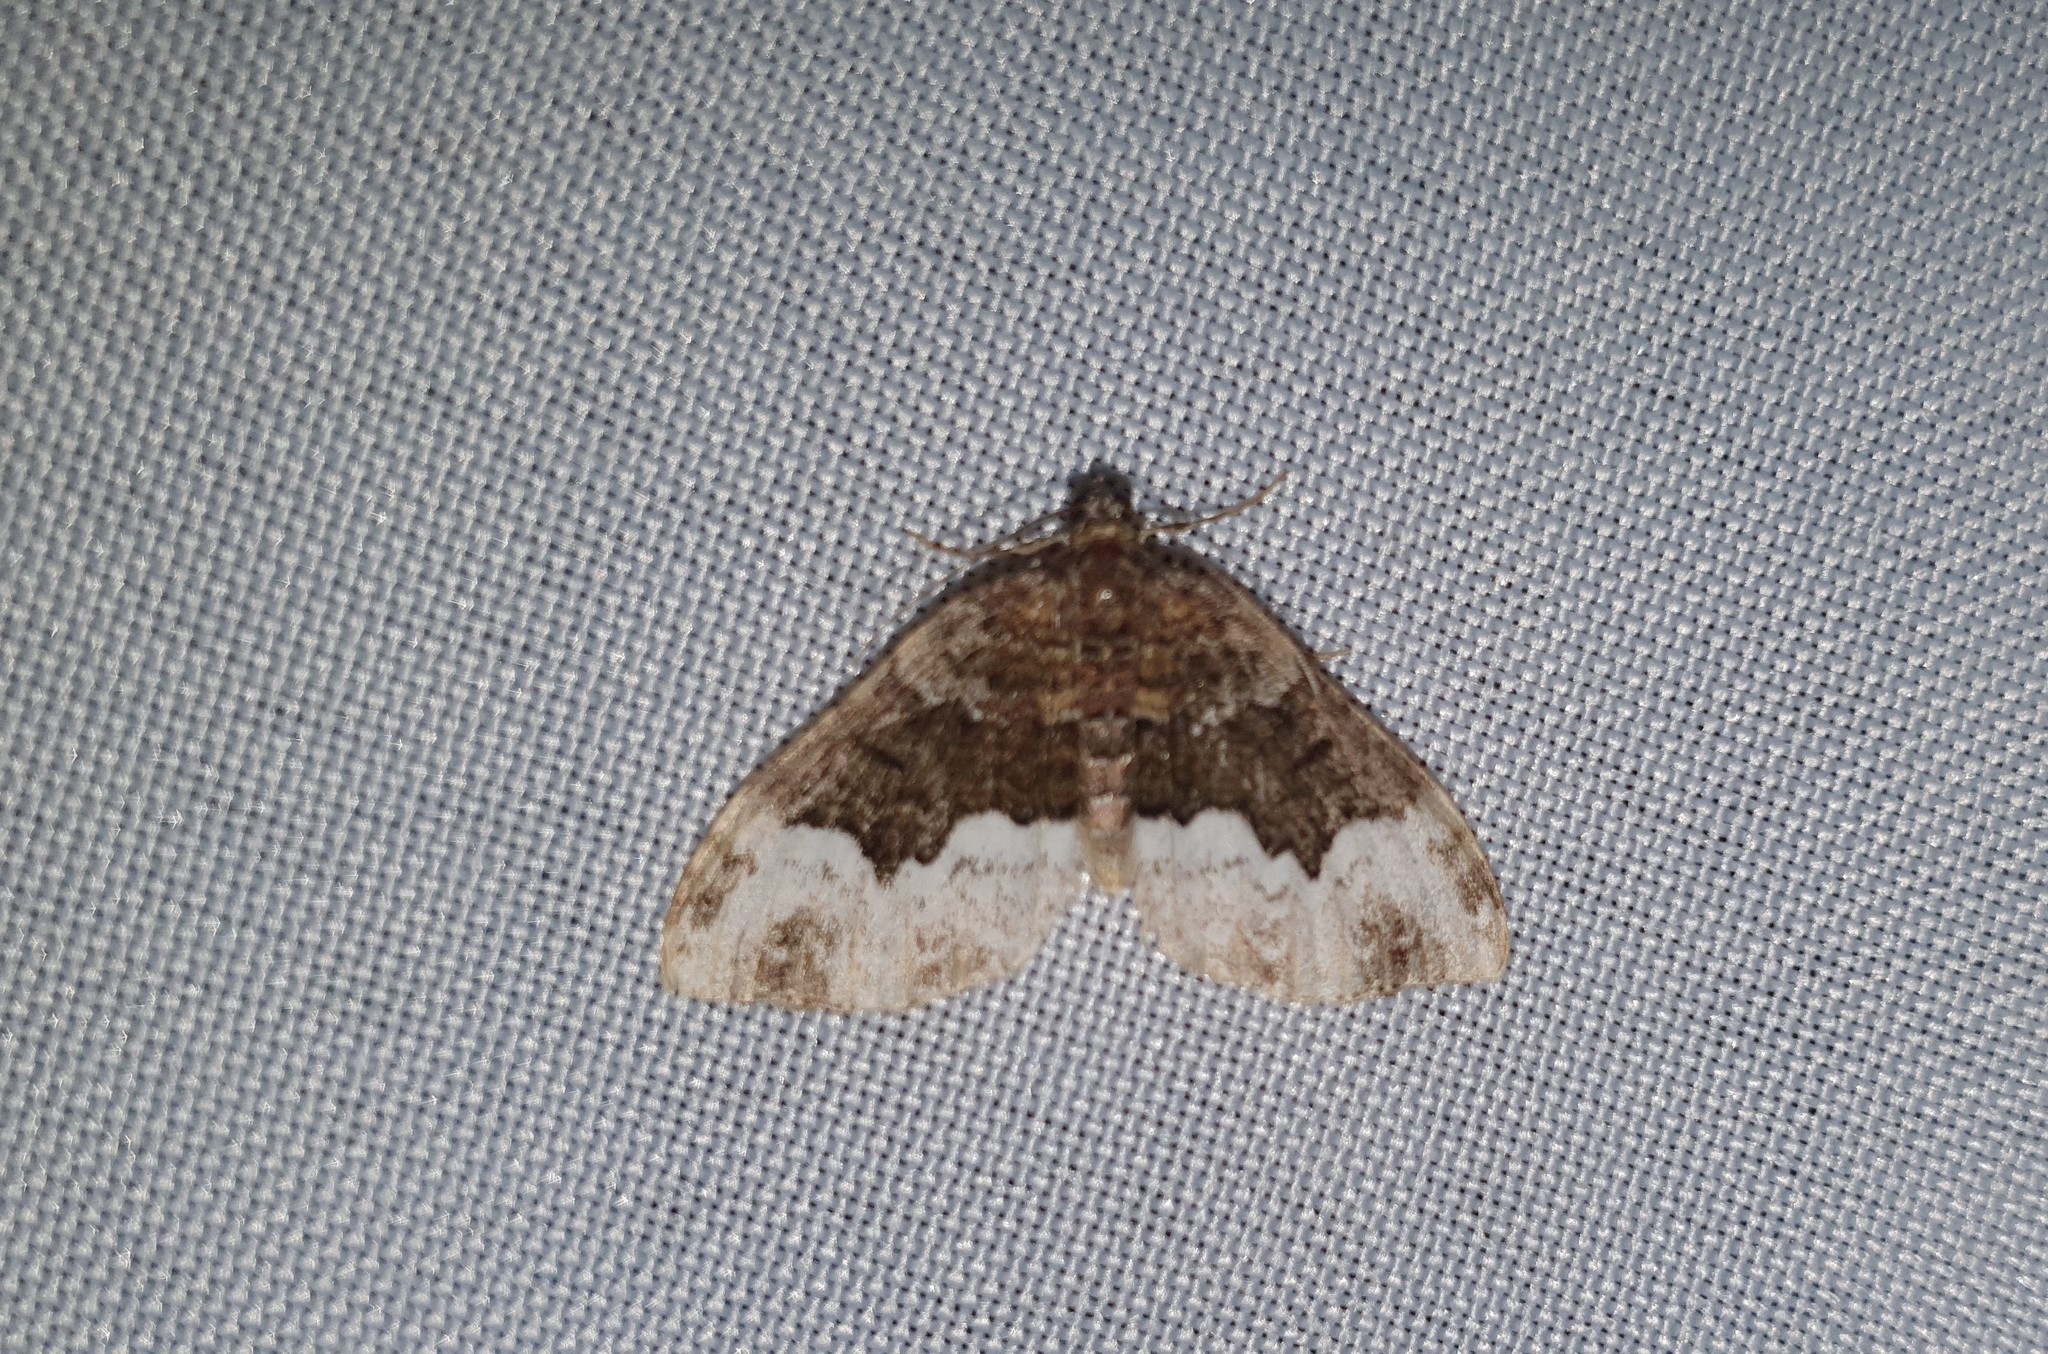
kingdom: Animalia
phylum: Arthropoda
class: Insecta
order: Lepidoptera
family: Geometridae
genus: Euphyia
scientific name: Euphyia biangulata
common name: Cloaked carpet
